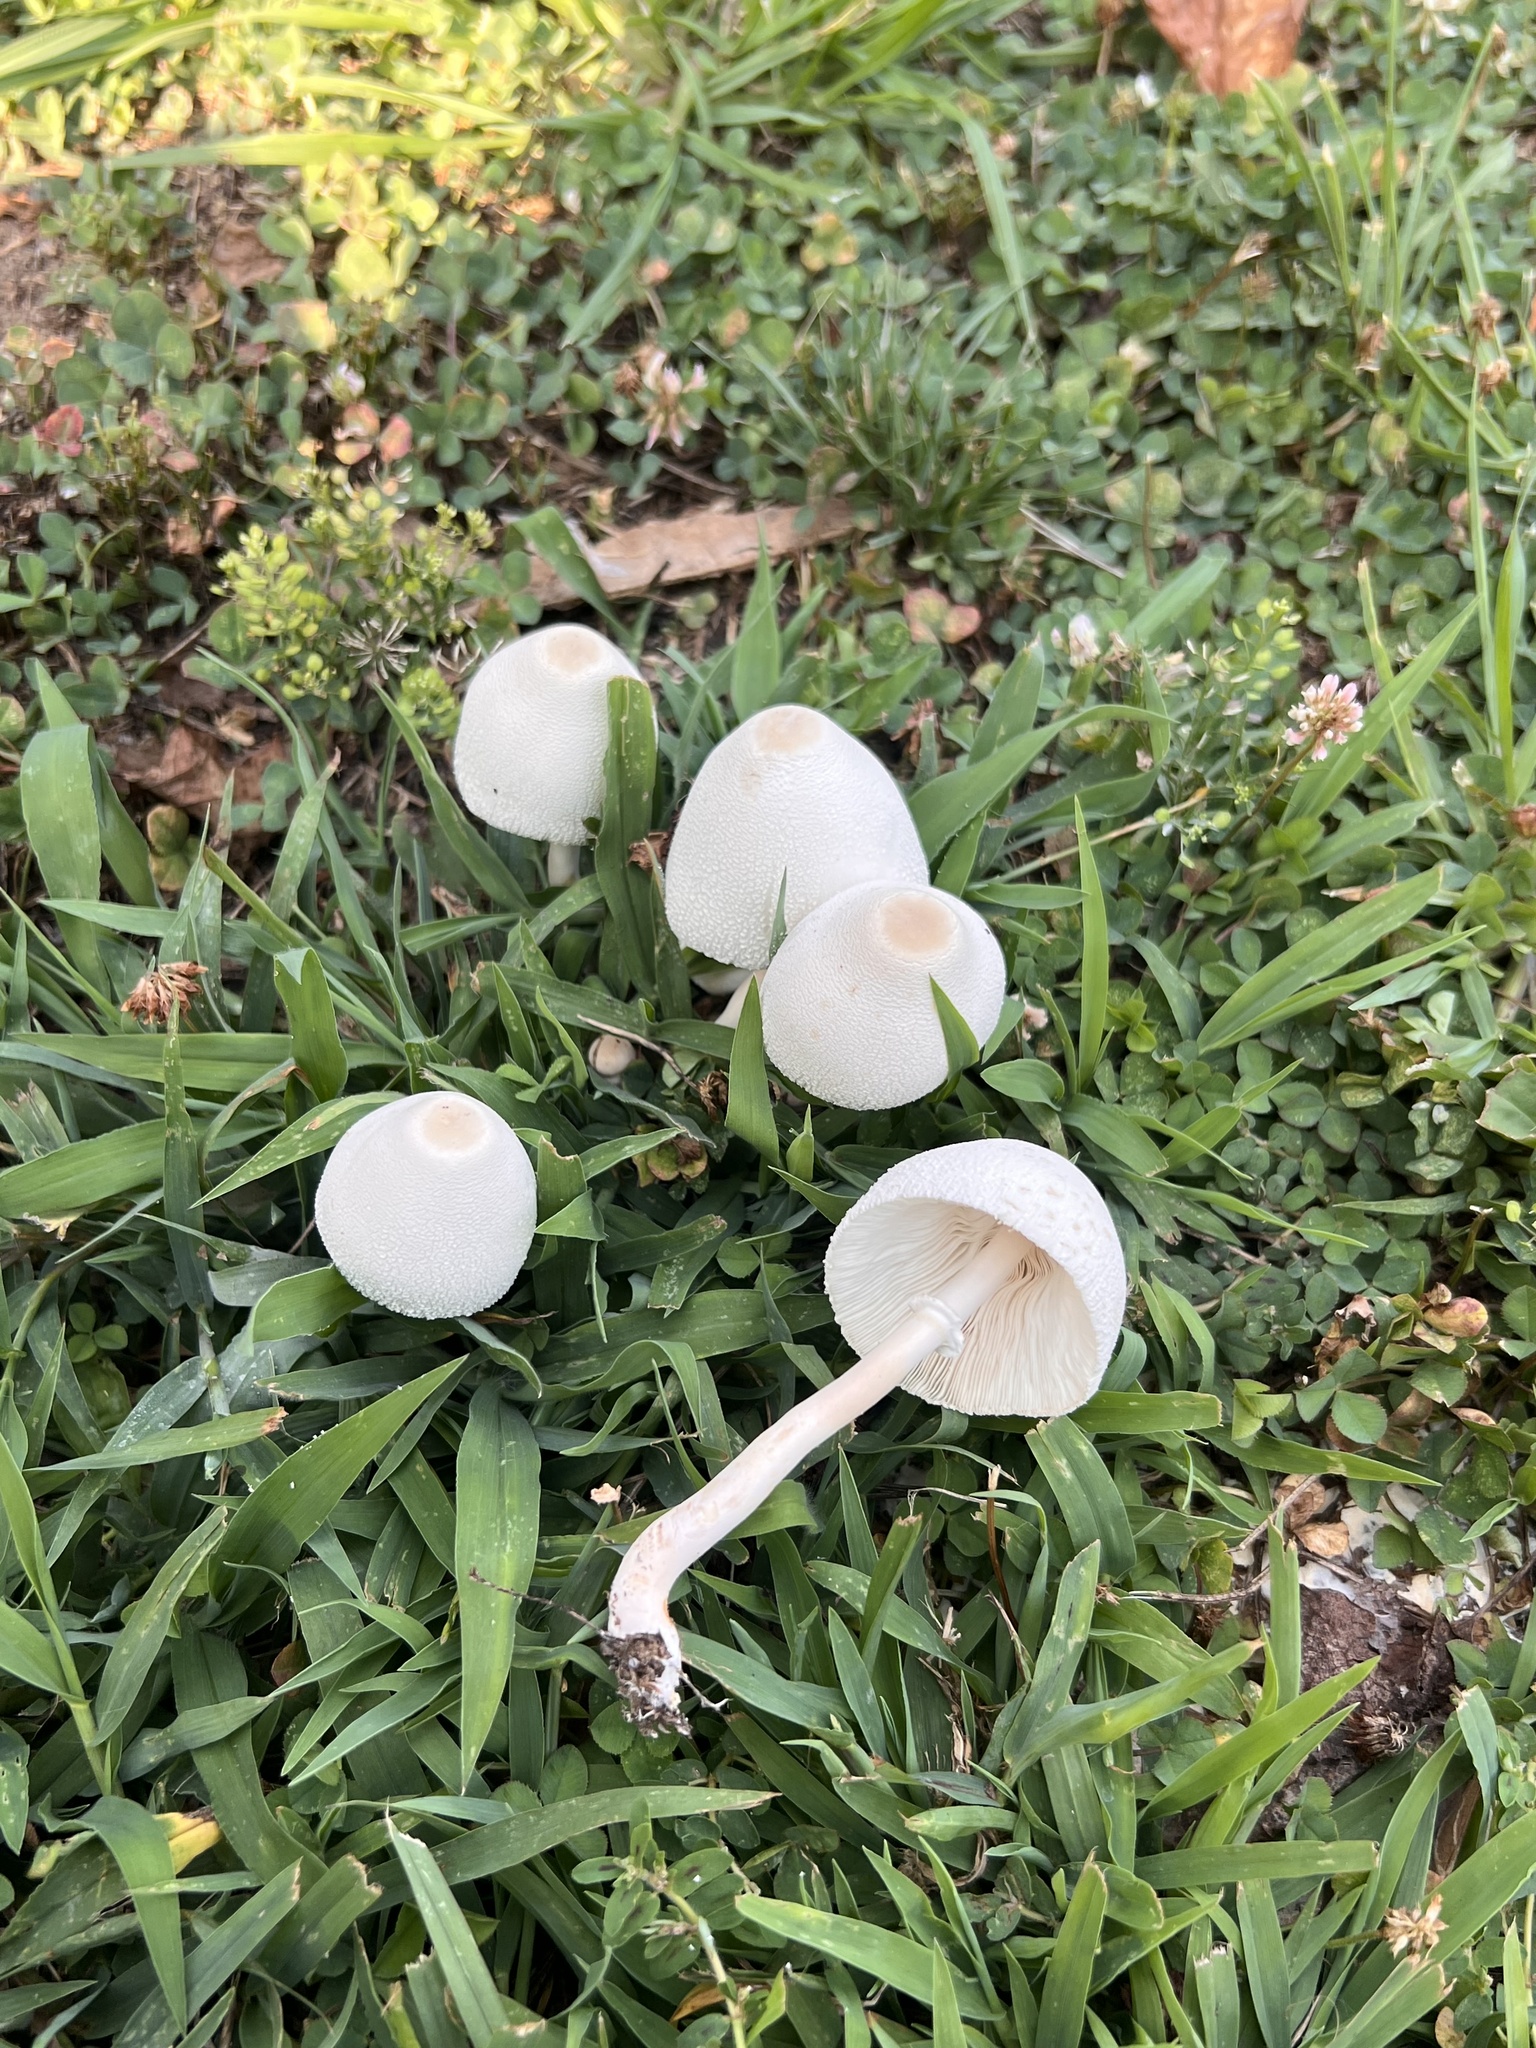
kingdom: Fungi
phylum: Basidiomycota
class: Agaricomycetes
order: Agaricales
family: Agaricaceae
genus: Leucocoprinus
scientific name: Leucocoprinus cepistipes
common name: Onion-stalk parasol
